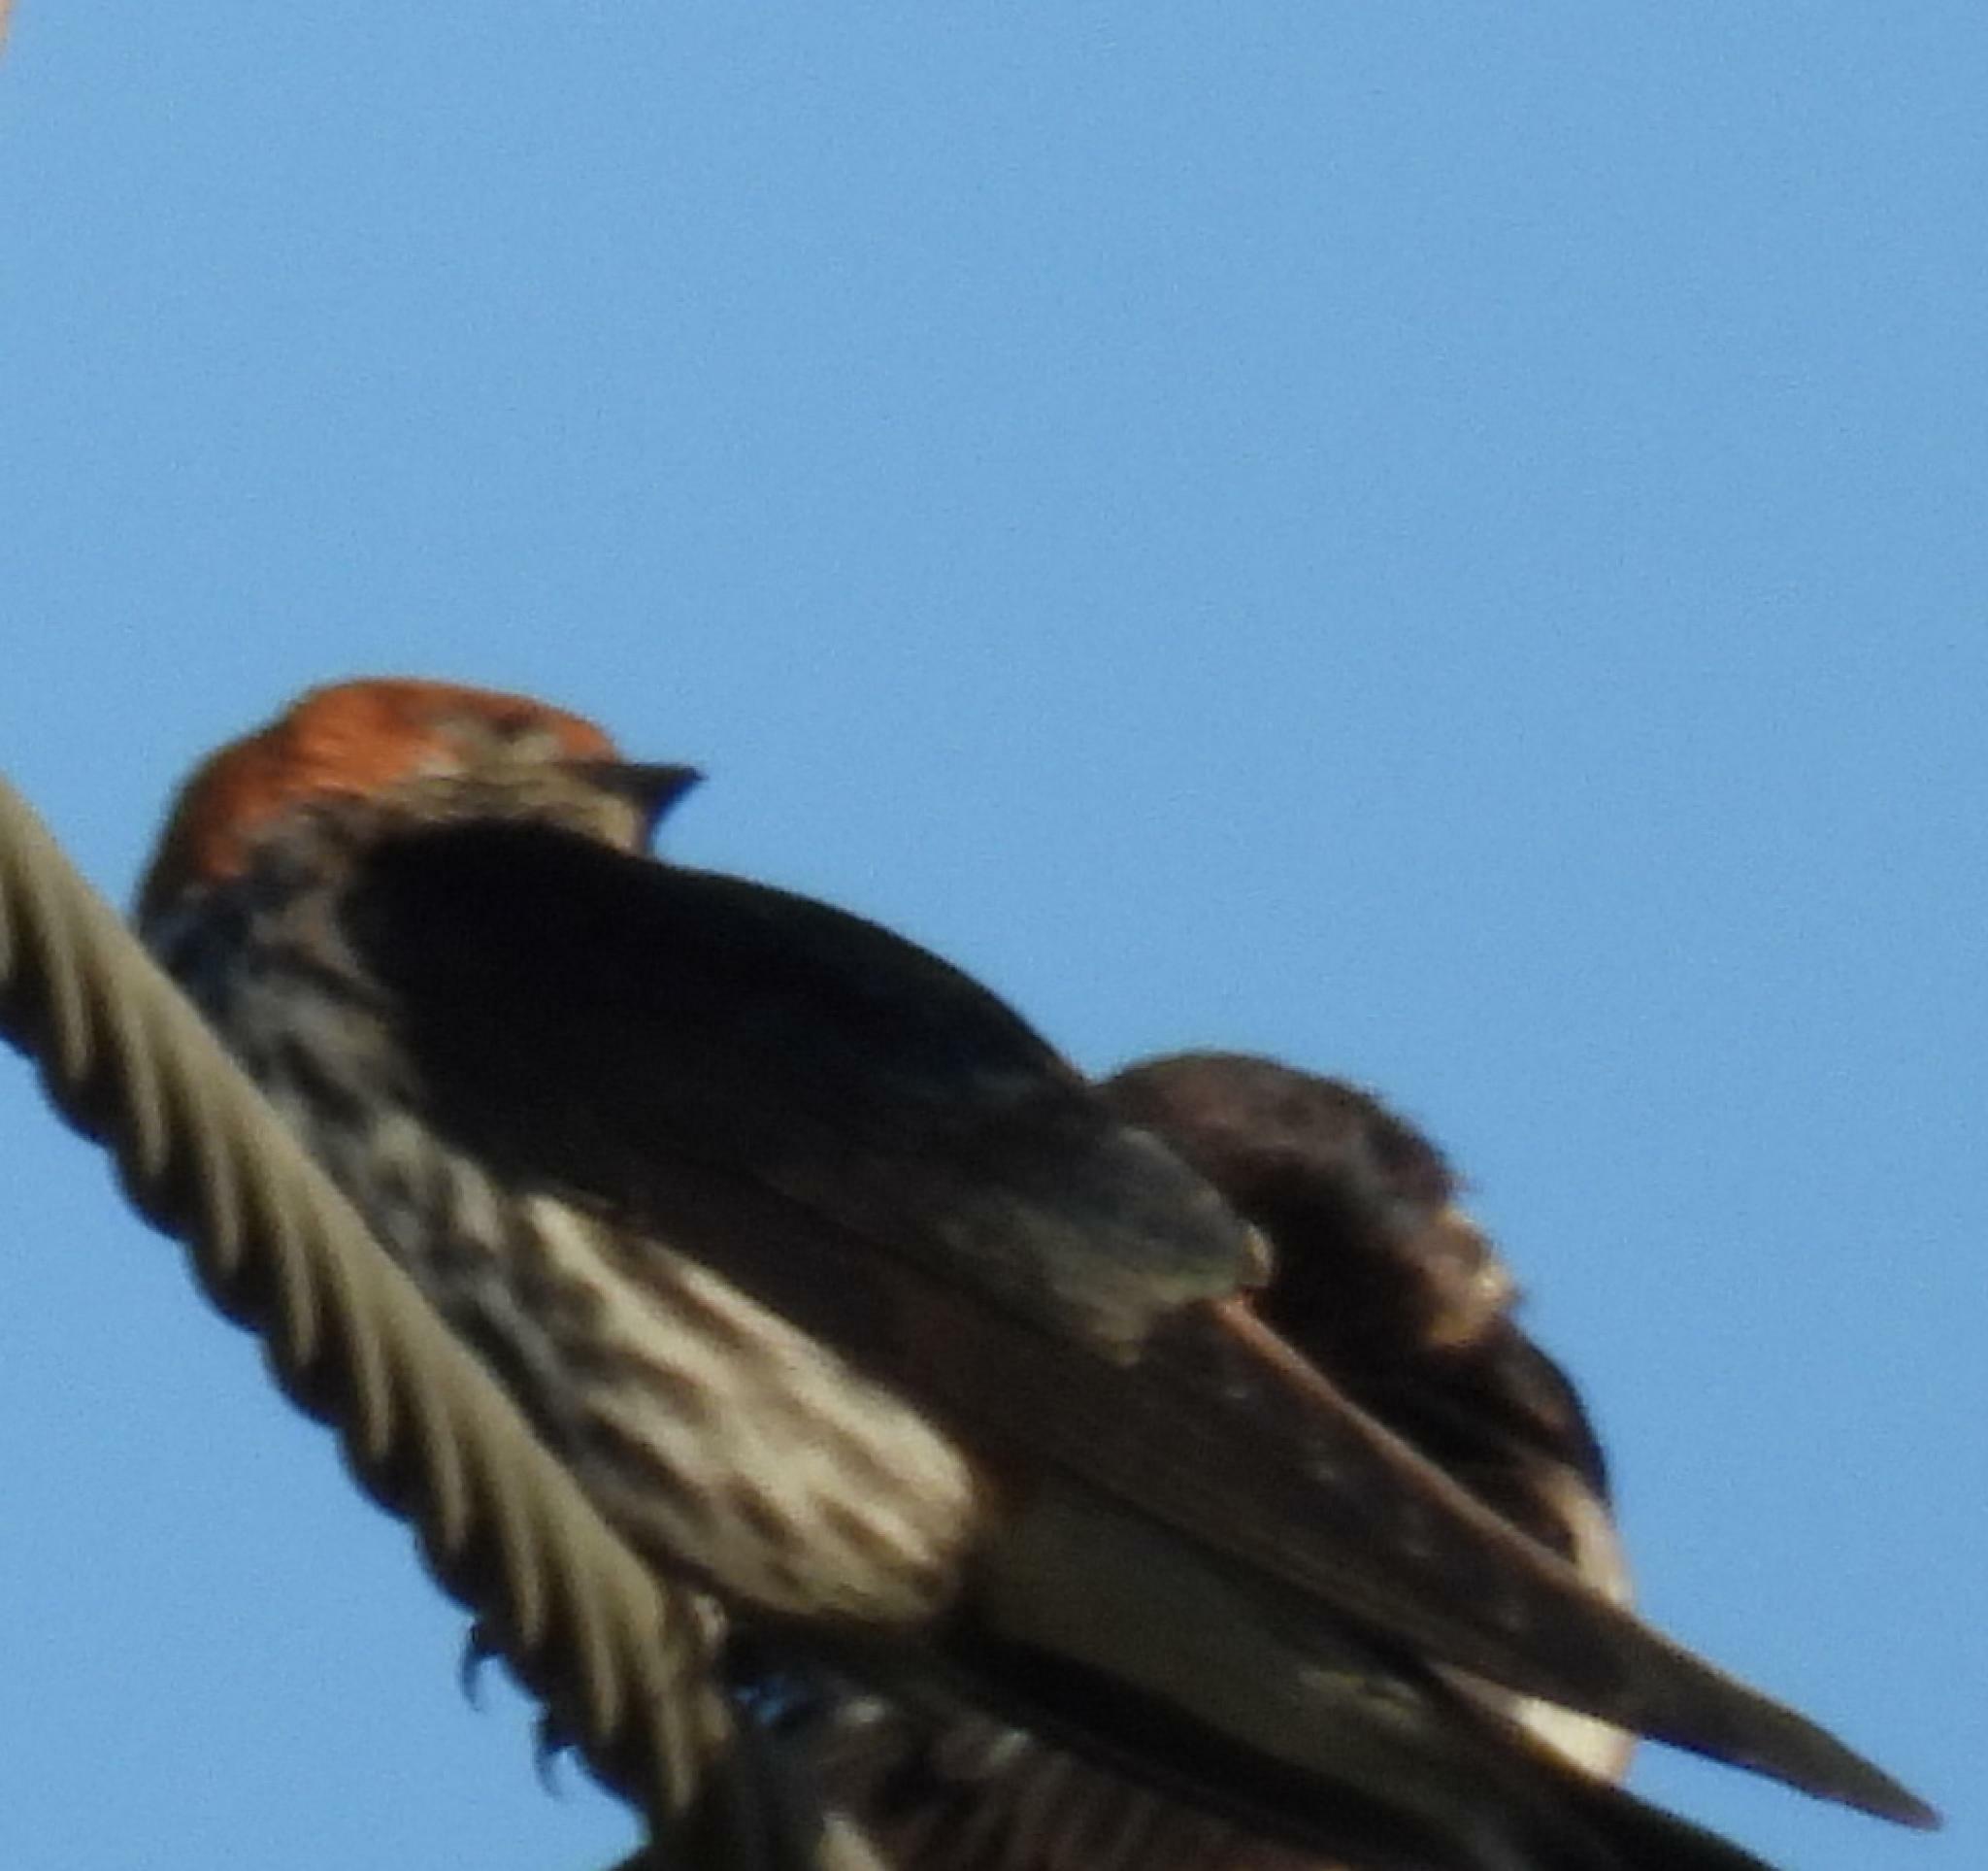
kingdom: Animalia
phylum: Chordata
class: Aves
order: Passeriformes
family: Hirundinidae
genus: Cecropis
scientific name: Cecropis abyssinica
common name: Lesser striped-swallow
